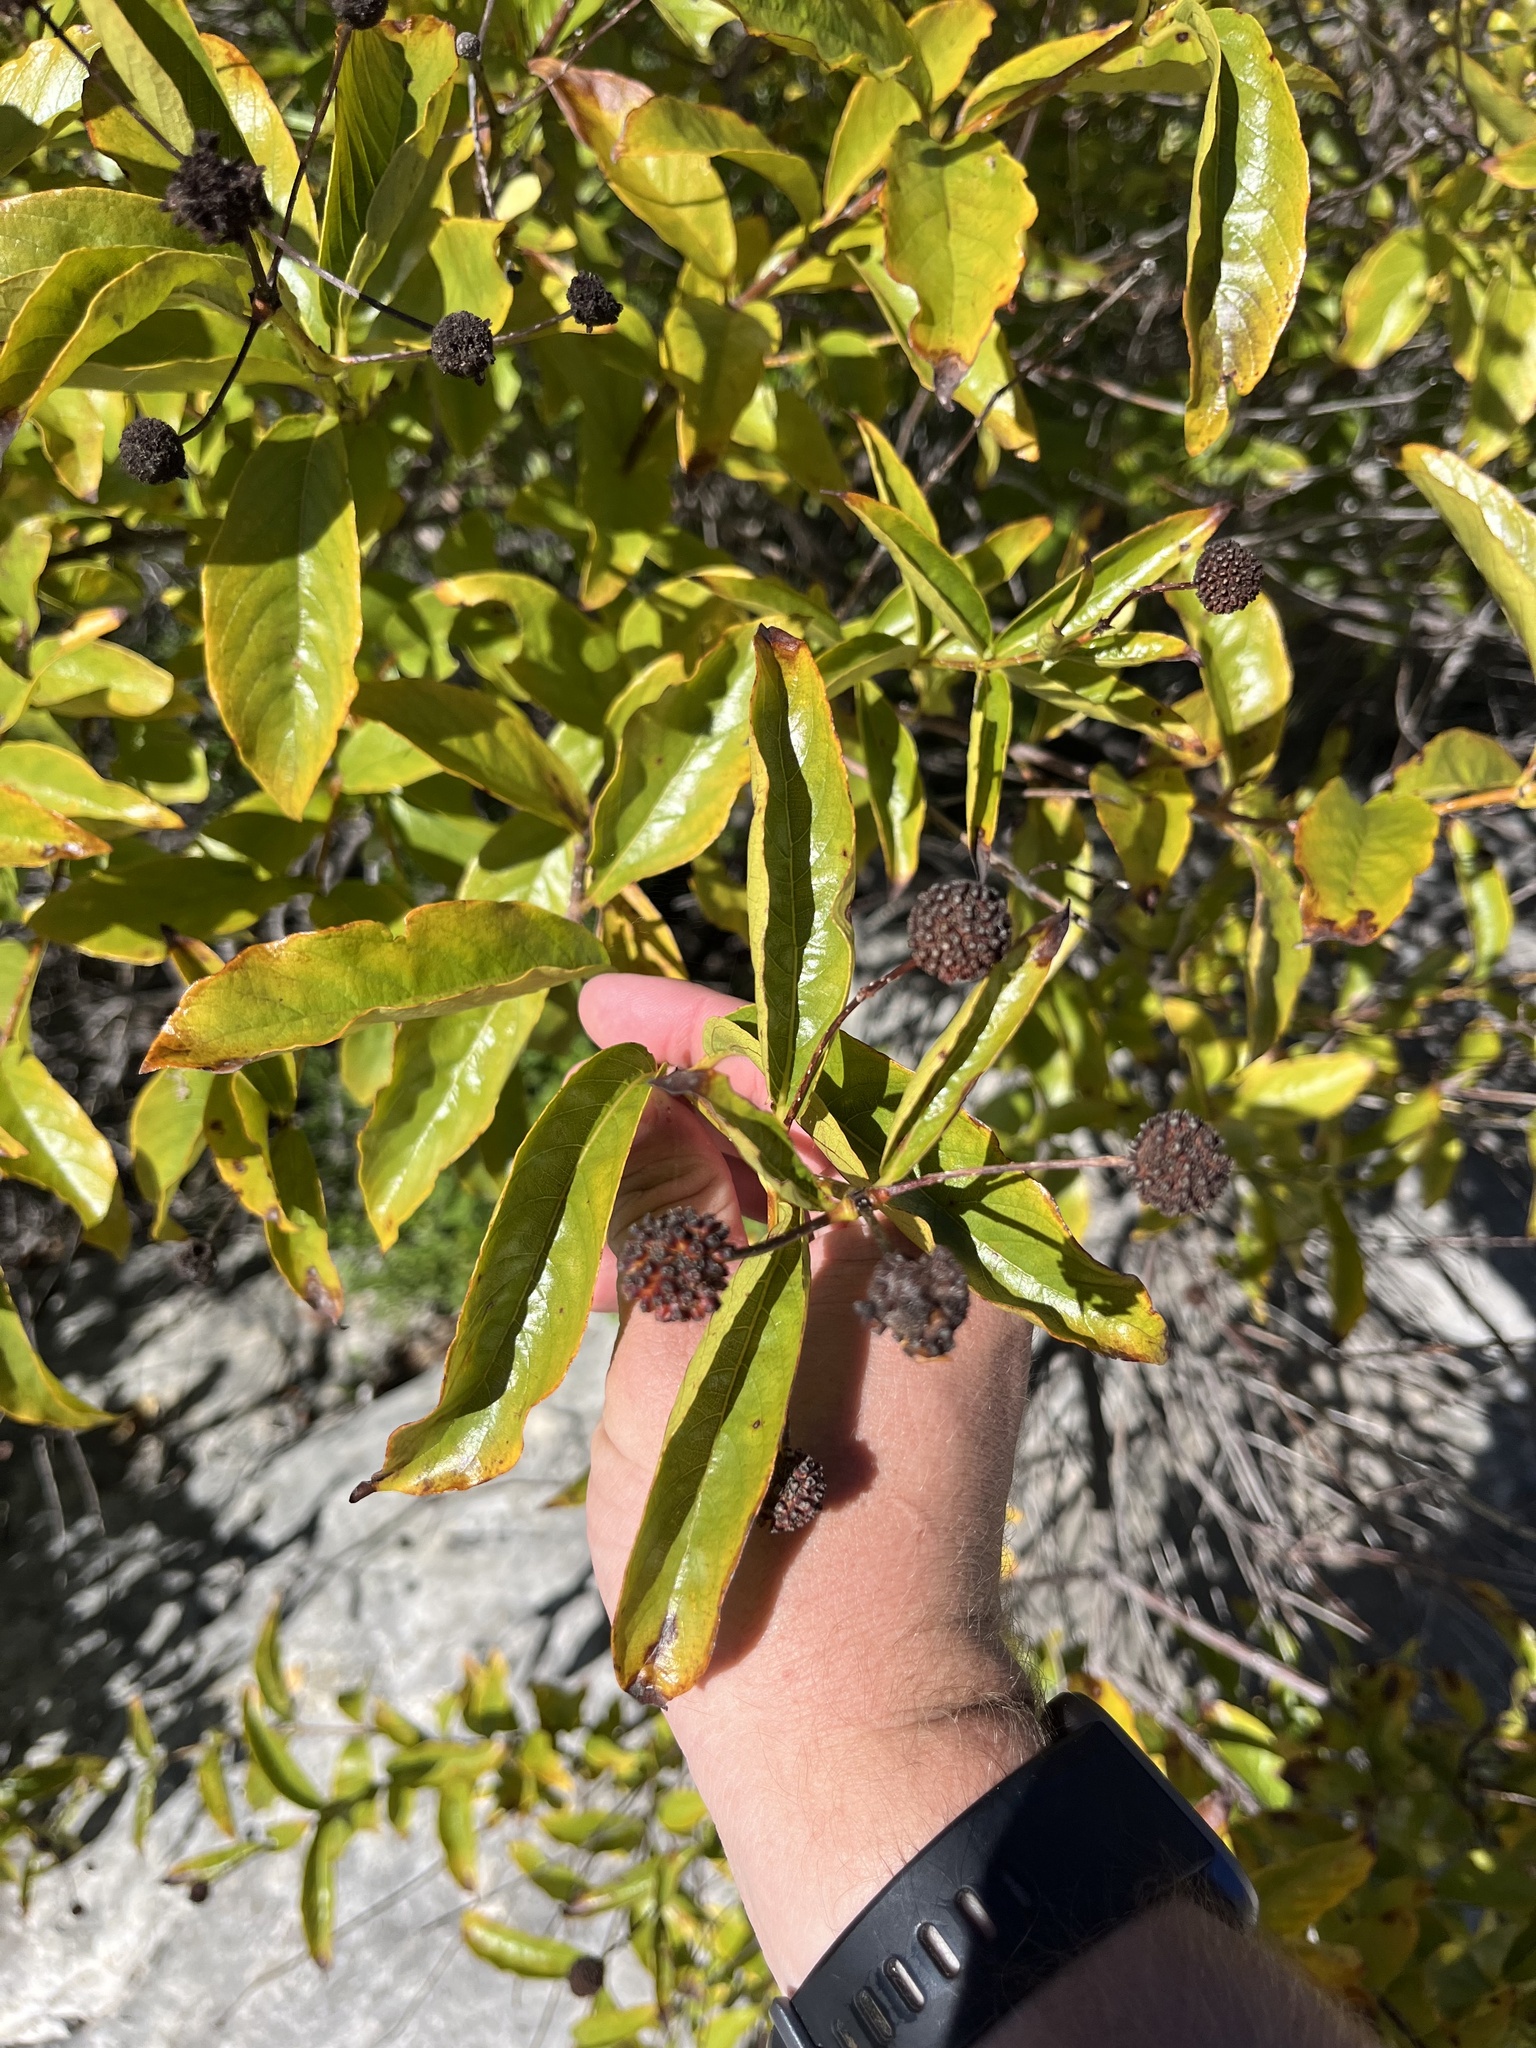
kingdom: Plantae
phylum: Tracheophyta
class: Magnoliopsida
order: Gentianales
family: Rubiaceae
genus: Cephalanthus
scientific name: Cephalanthus occidentalis
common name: Button-willow
